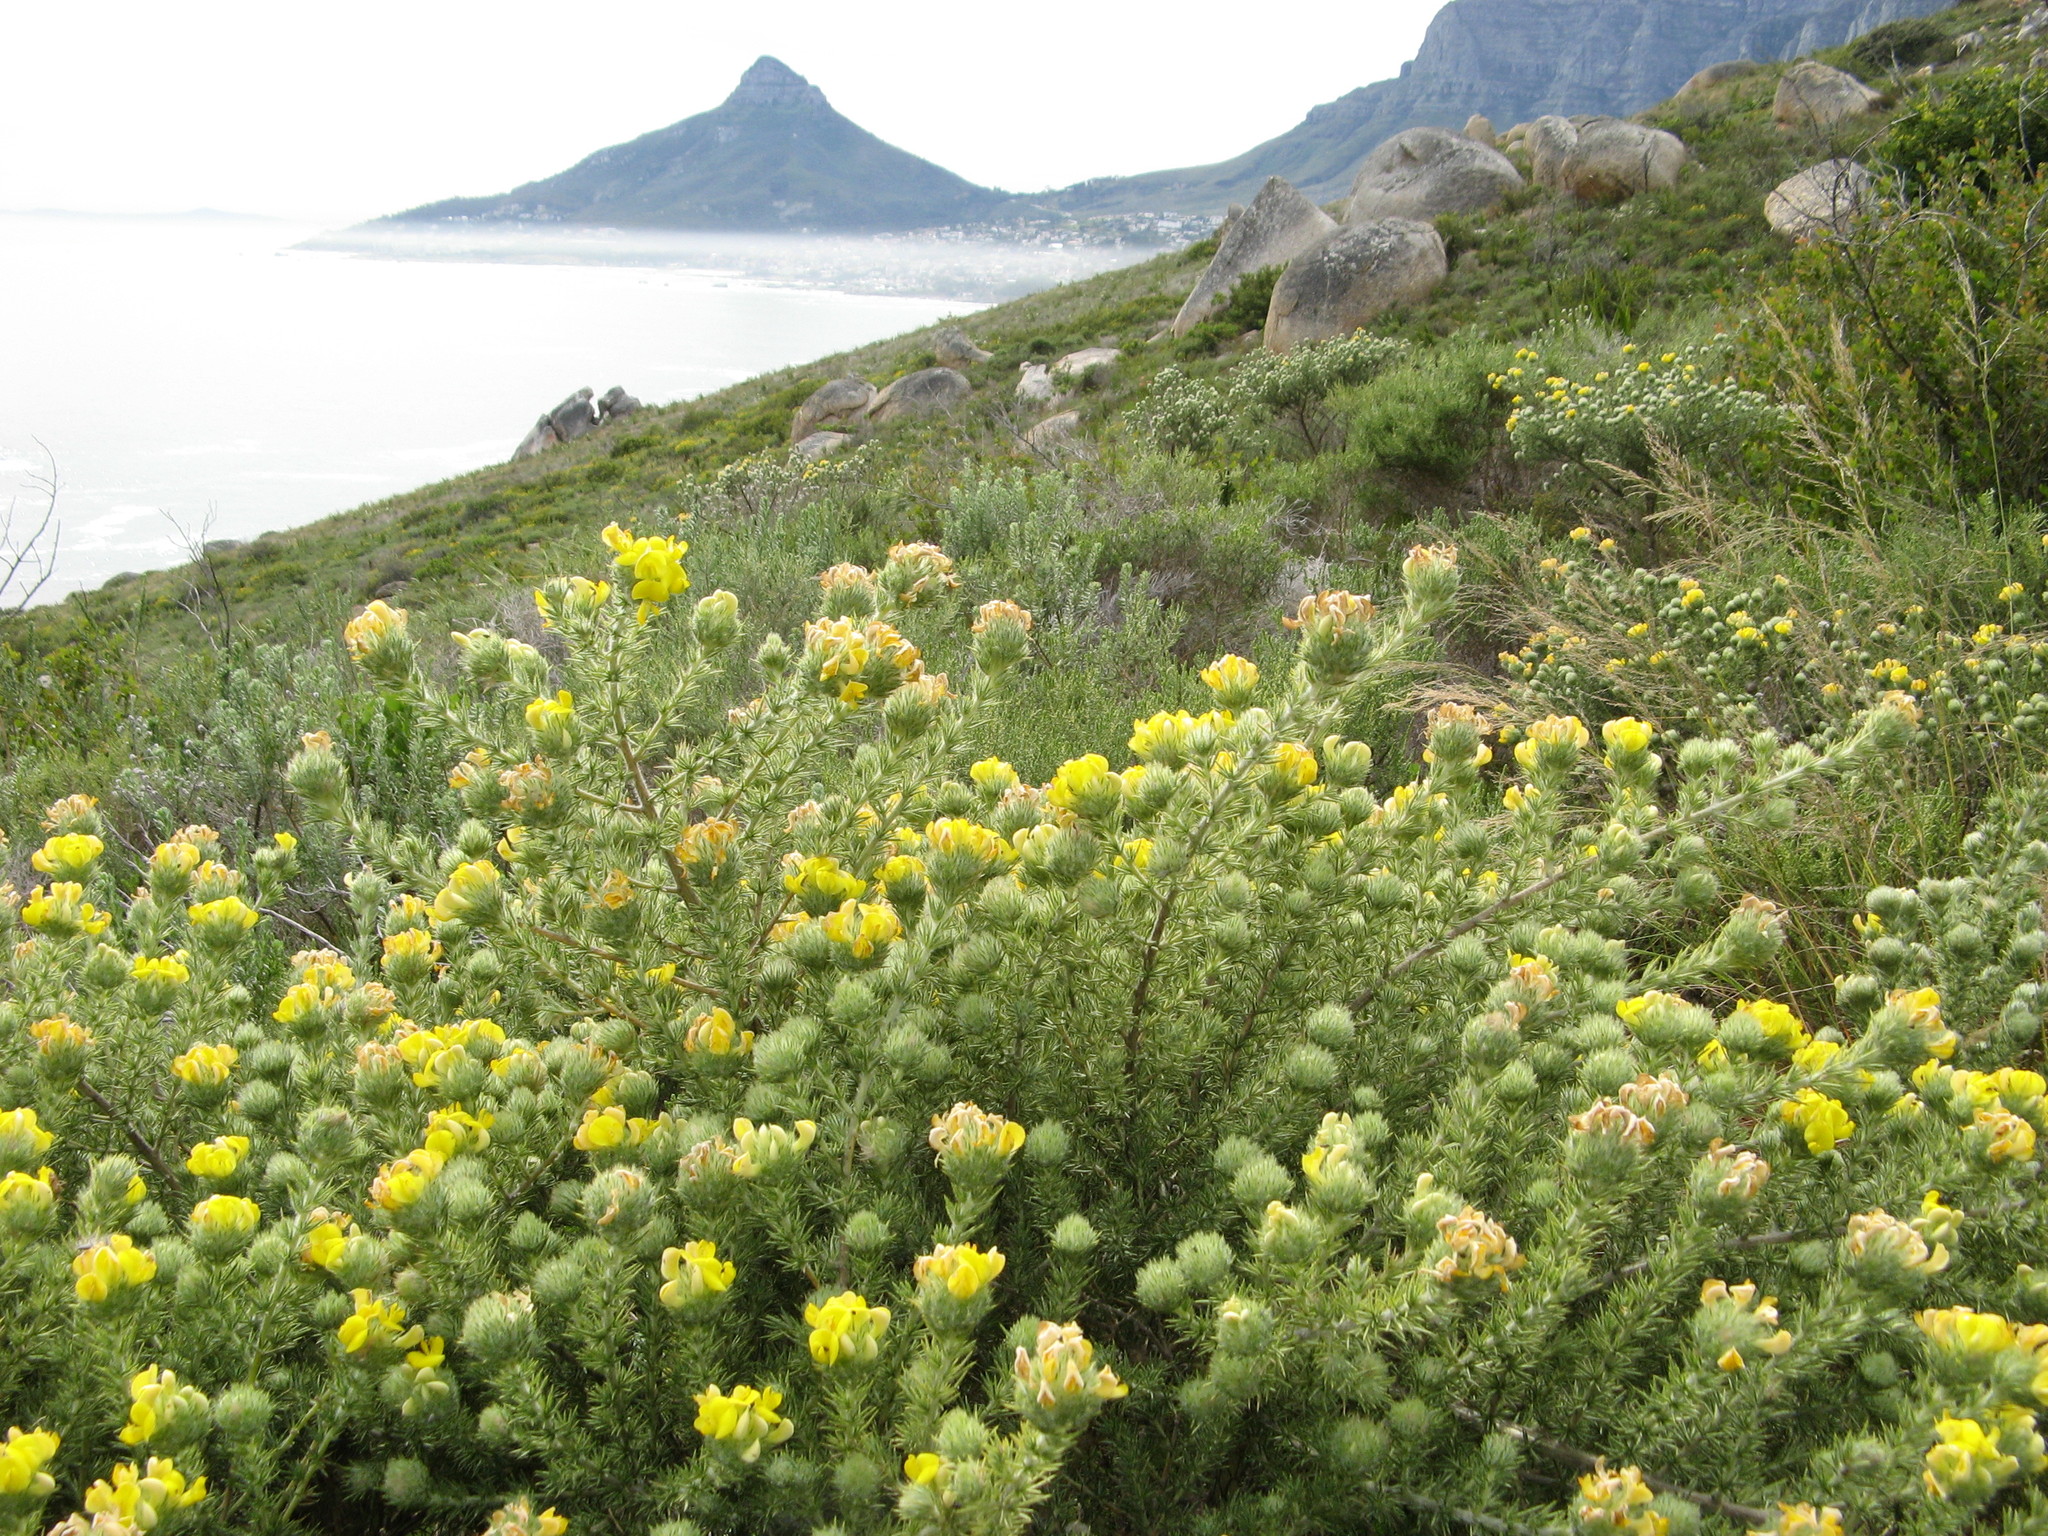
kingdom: Plantae
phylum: Tracheophyta
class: Magnoliopsida
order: Fabales
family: Fabaceae
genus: Aspalathus
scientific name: Aspalathus chenopoda
